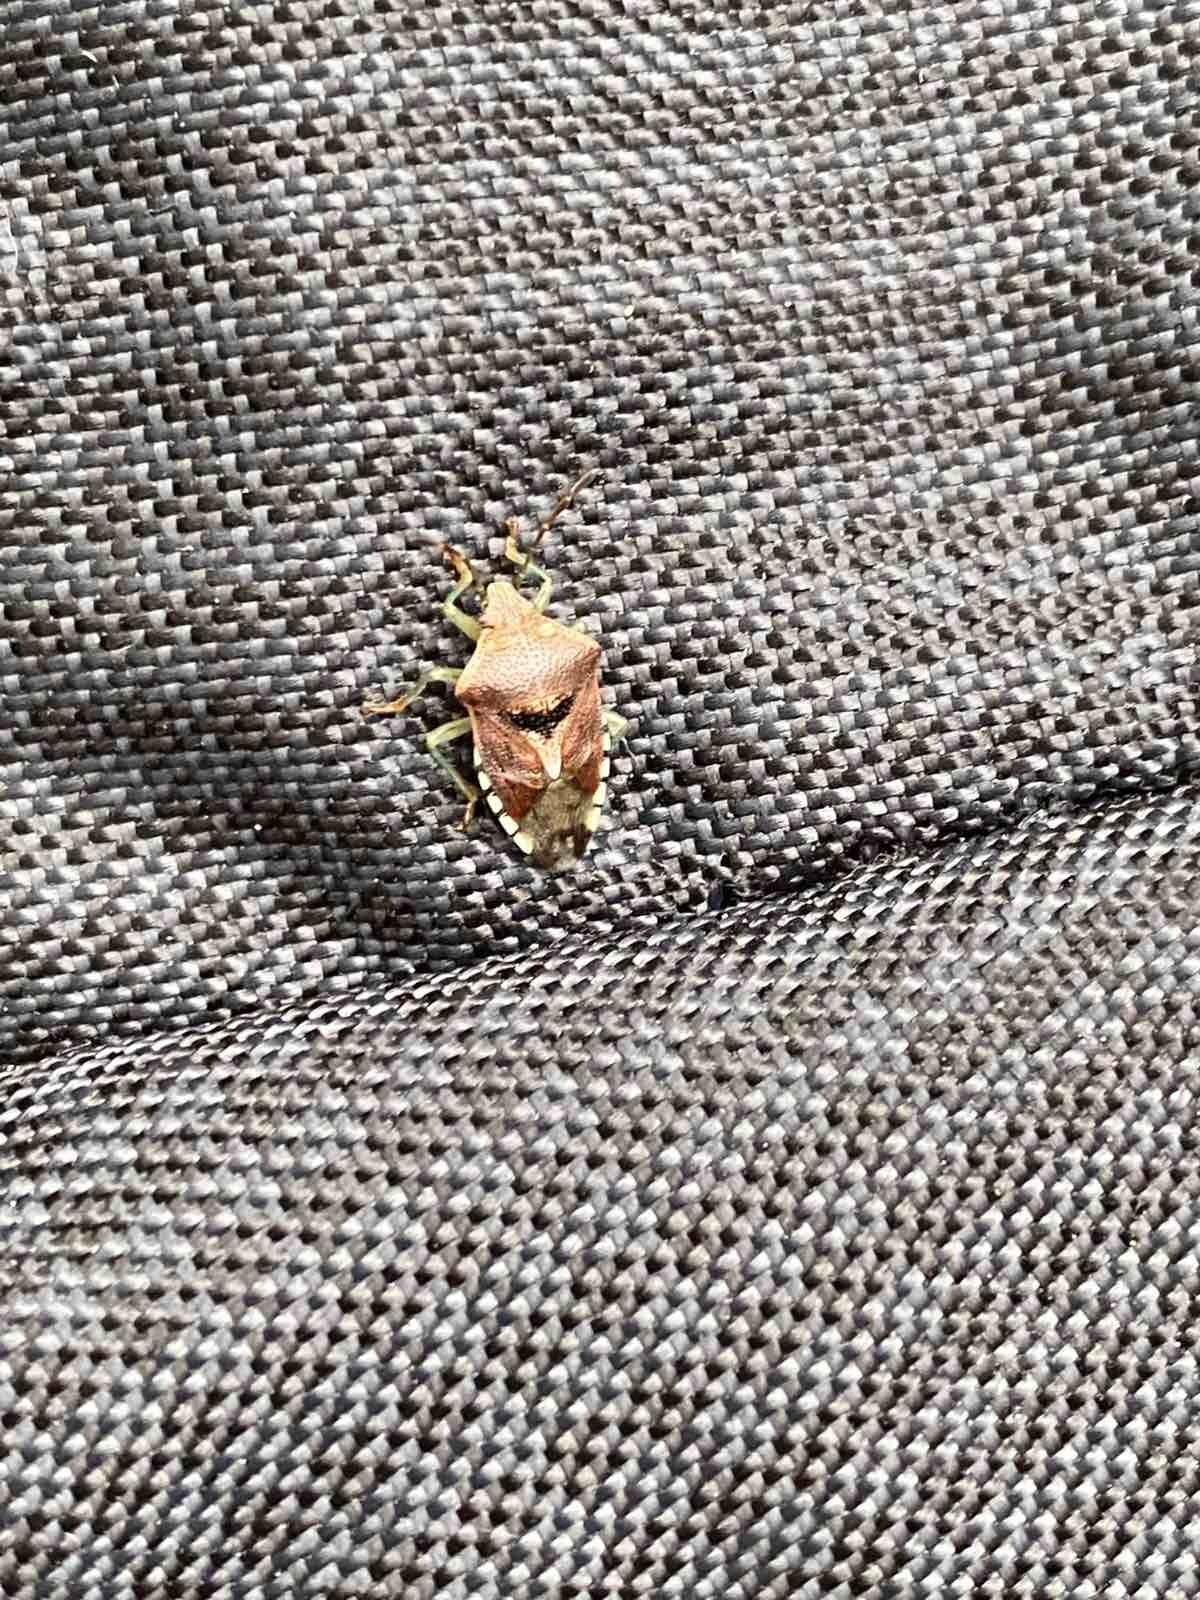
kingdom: Animalia
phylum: Arthropoda
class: Insecta
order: Hemiptera
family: Acanthosomatidae
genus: Elasmucha
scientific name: Elasmucha grisea
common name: Parent bug
